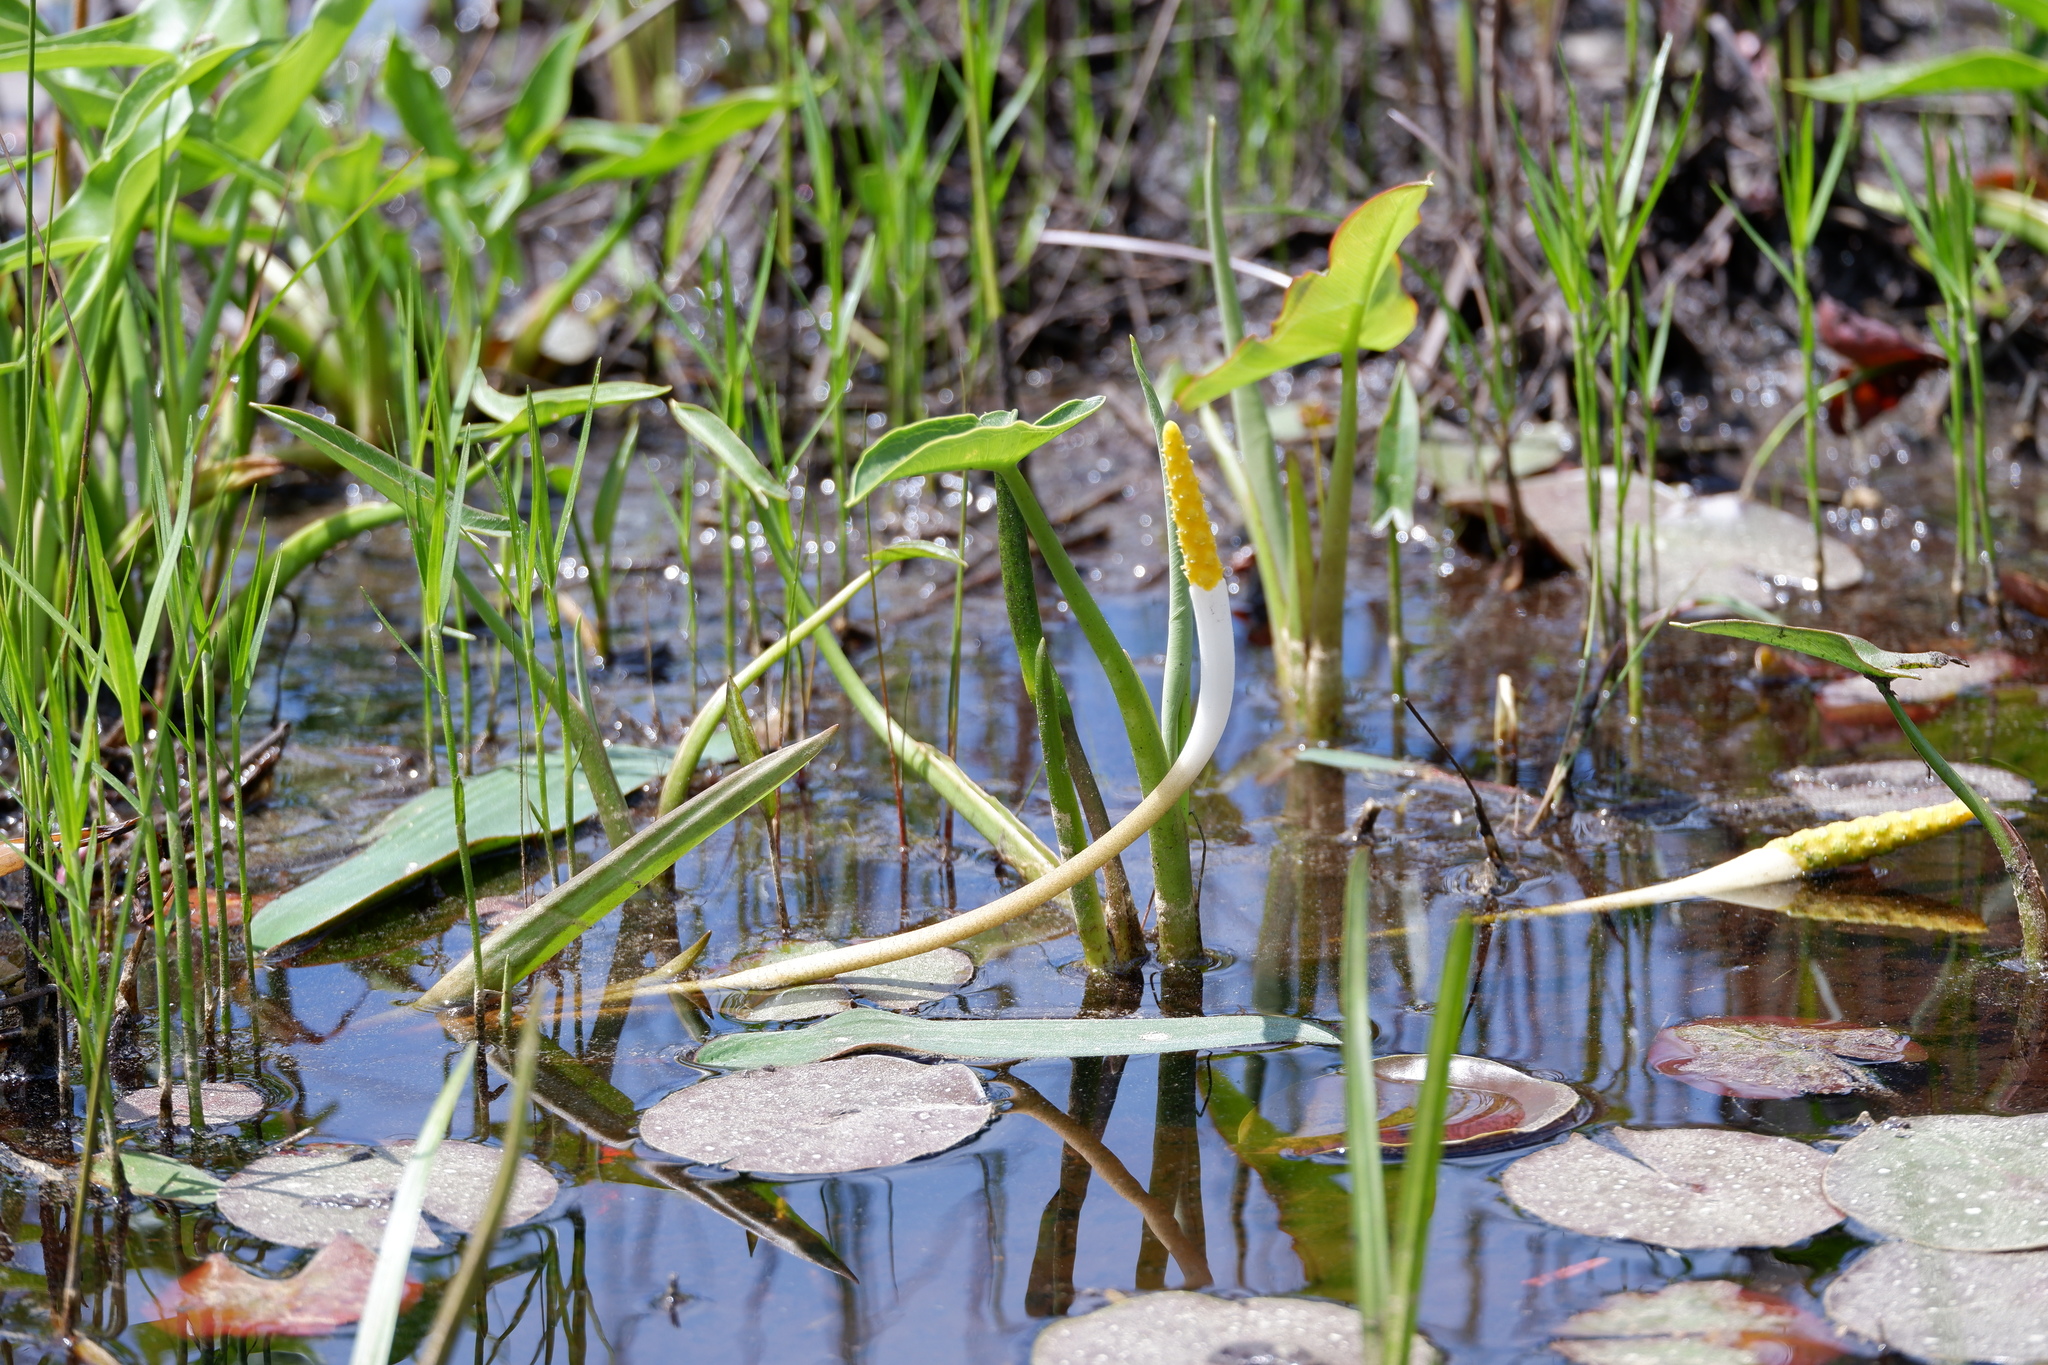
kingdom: Plantae
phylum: Tracheophyta
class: Liliopsida
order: Alismatales
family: Araceae
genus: Orontium
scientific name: Orontium aquaticum
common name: Golden-club
